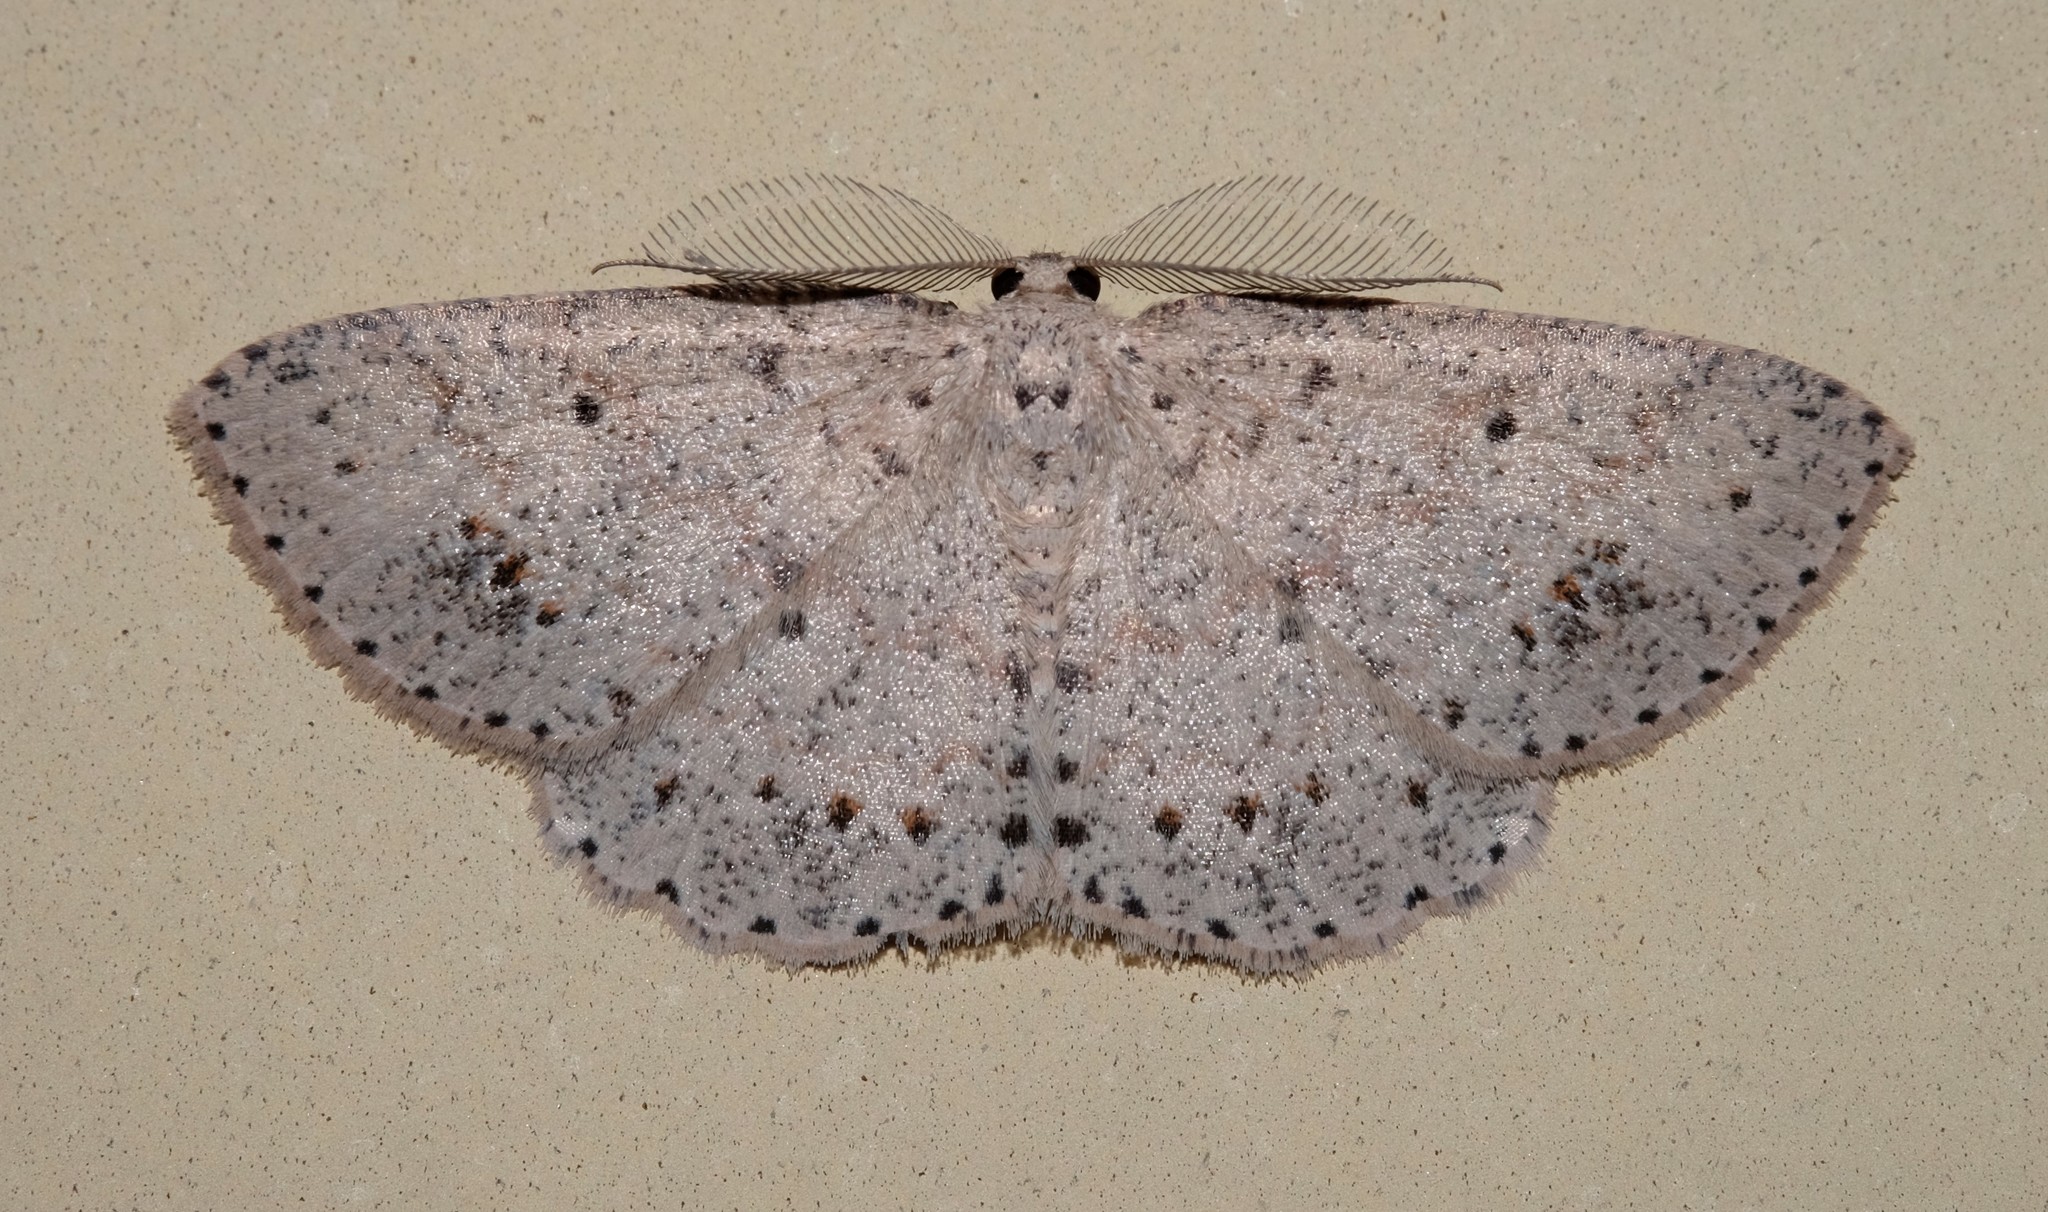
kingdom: Animalia
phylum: Arthropoda
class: Insecta
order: Lepidoptera
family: Geometridae
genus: Casbia
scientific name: Casbia tanaoctena
